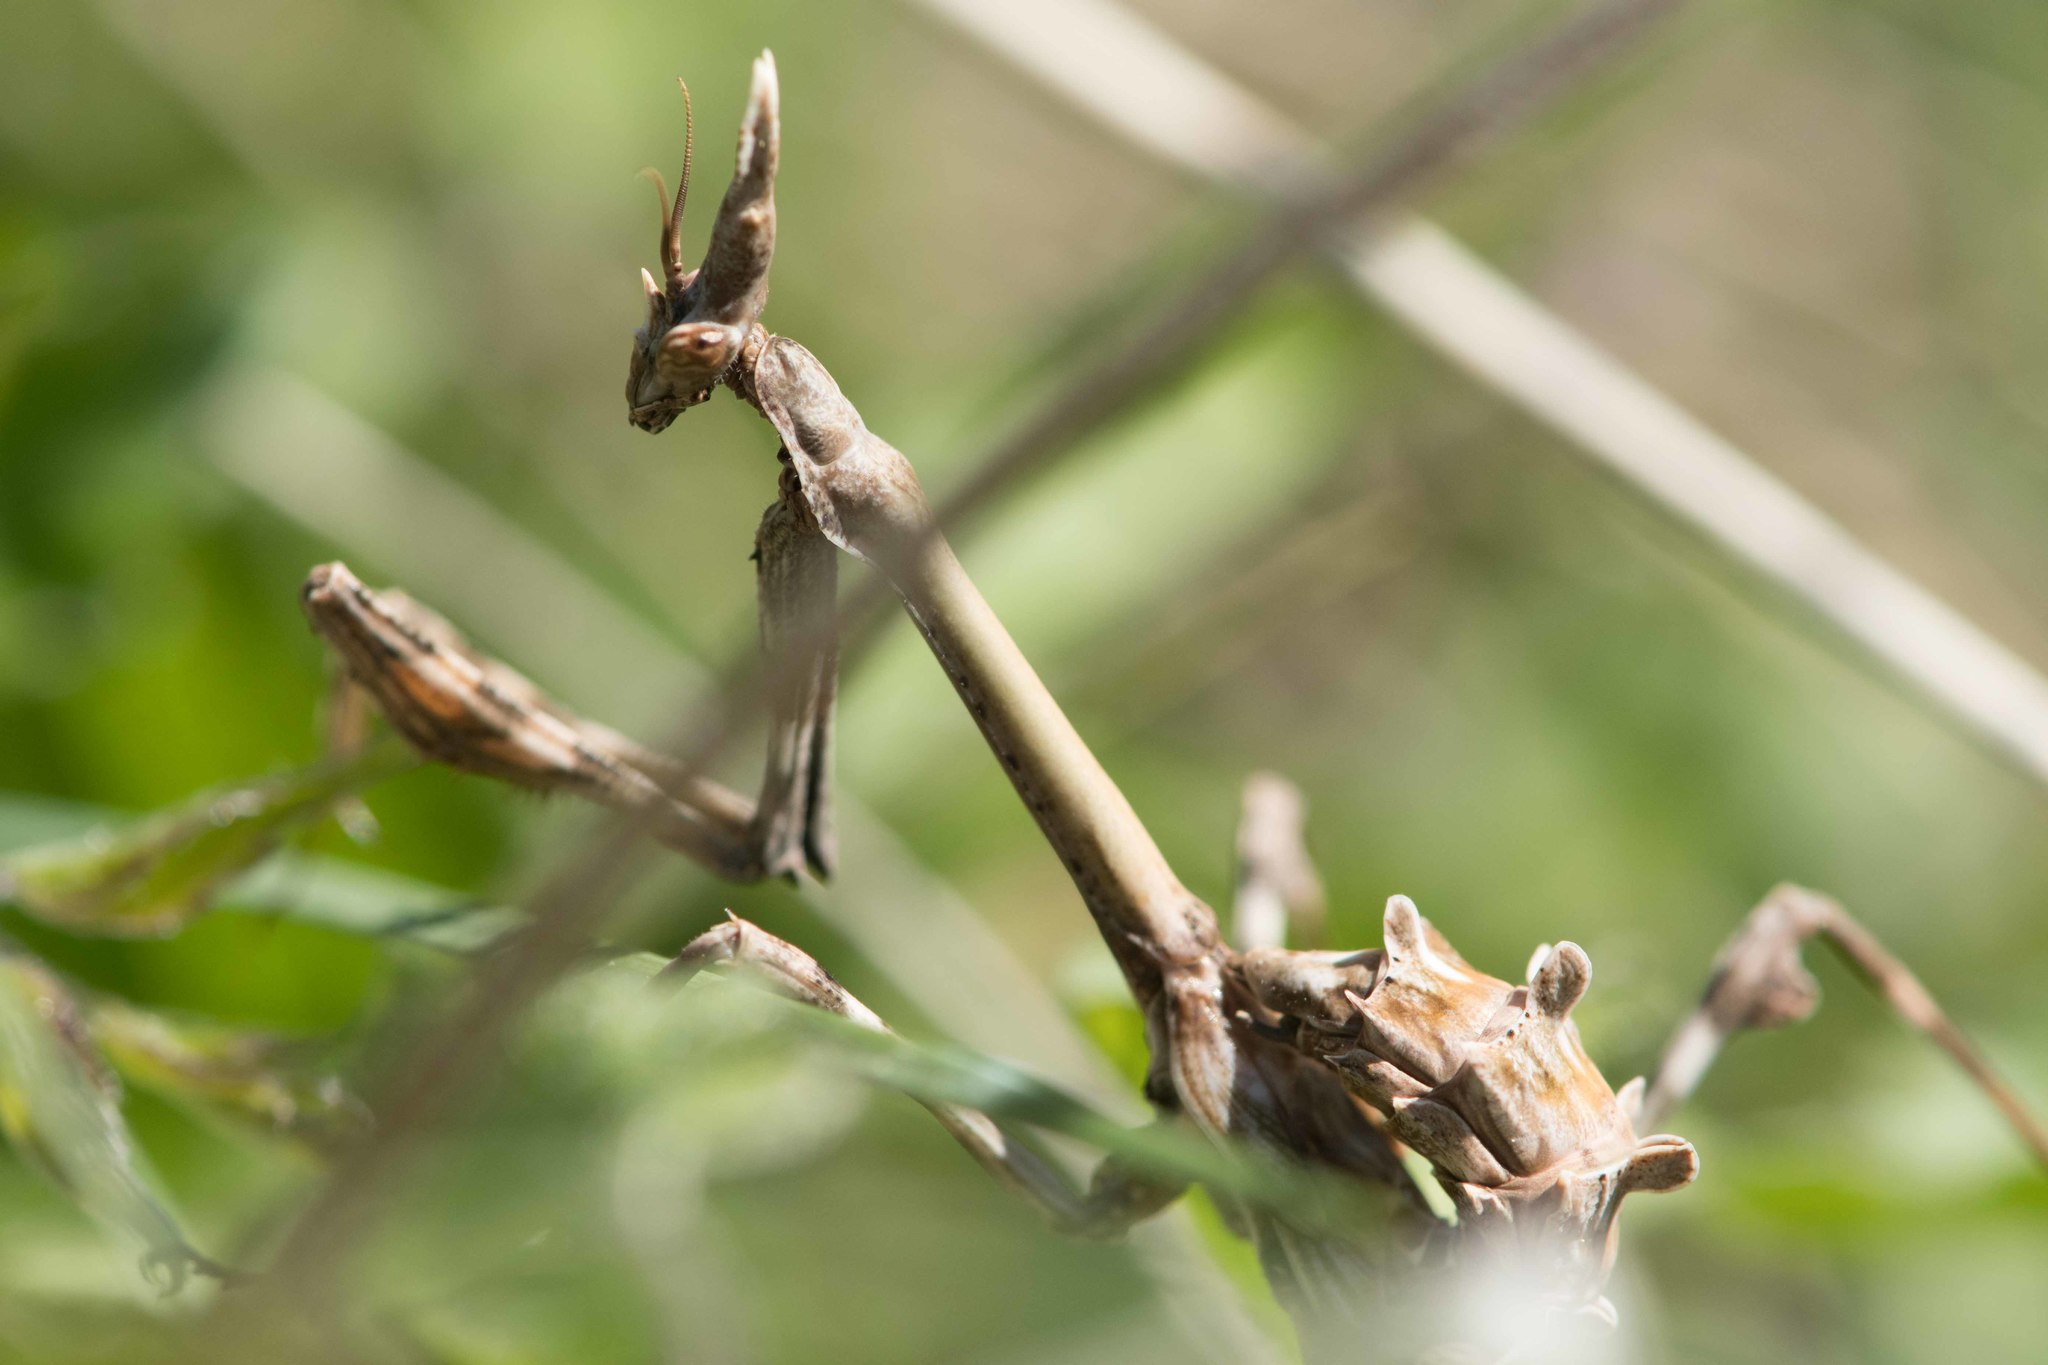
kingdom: Animalia
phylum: Arthropoda
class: Insecta
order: Mantodea
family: Empusidae
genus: Empusa
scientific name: Empusa pennata
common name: Conehead mantis
